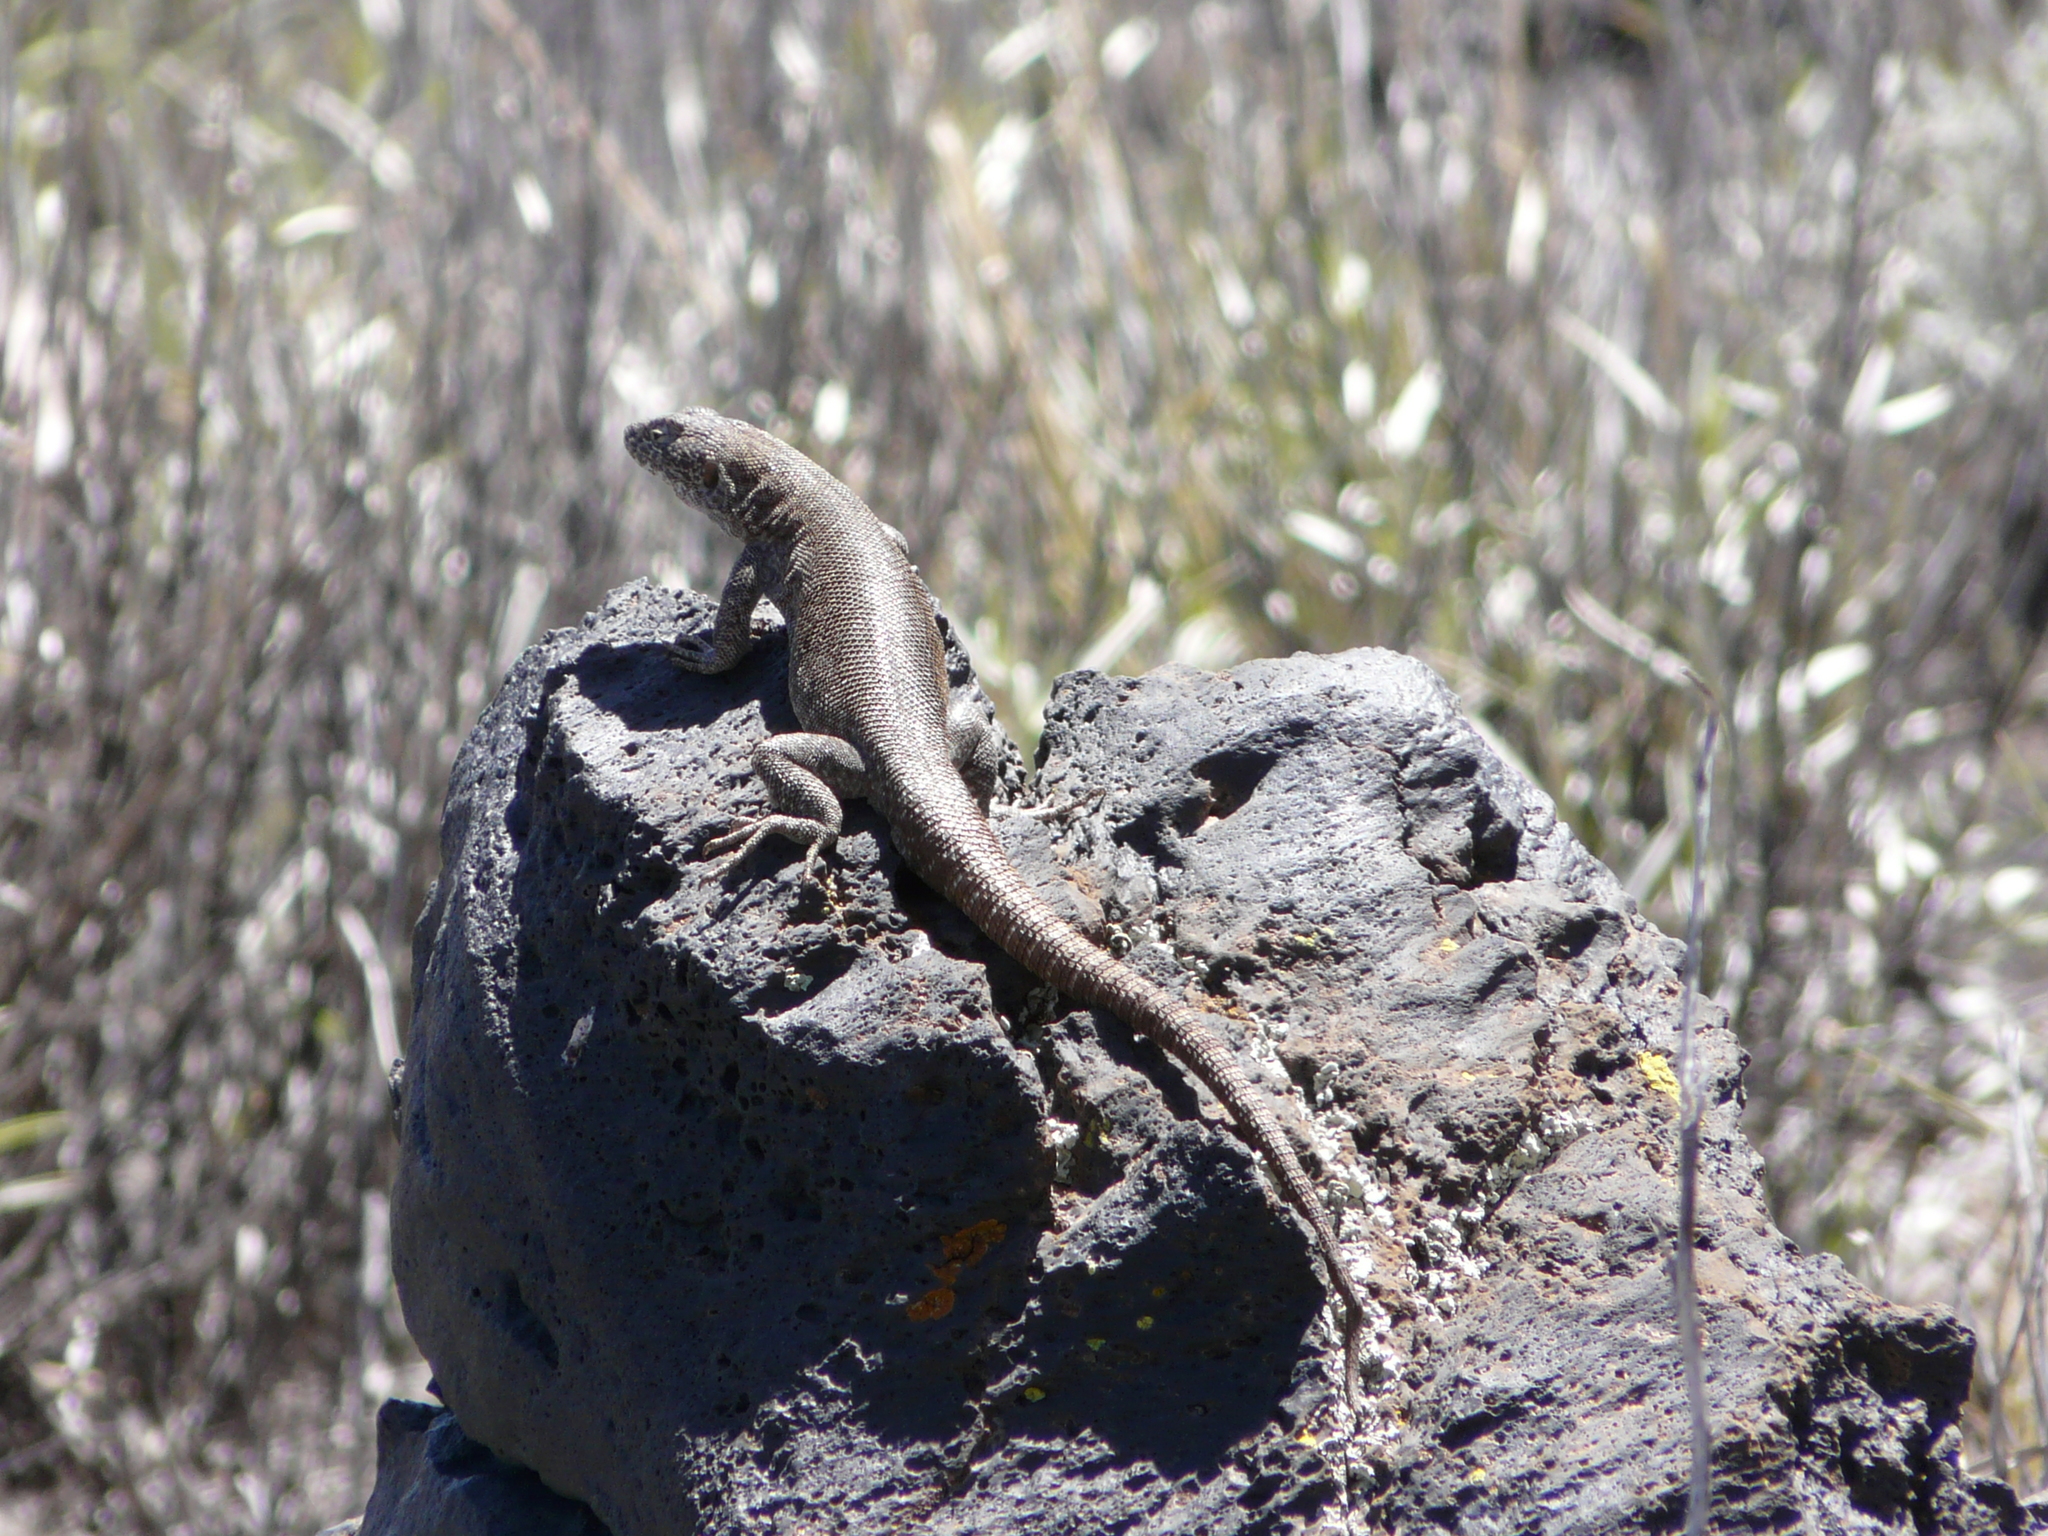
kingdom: Animalia
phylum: Chordata
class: Squamata
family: Liolaemidae
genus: Liolaemus
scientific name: Liolaemus austromendocinus
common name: Austromendocino tree iguana
